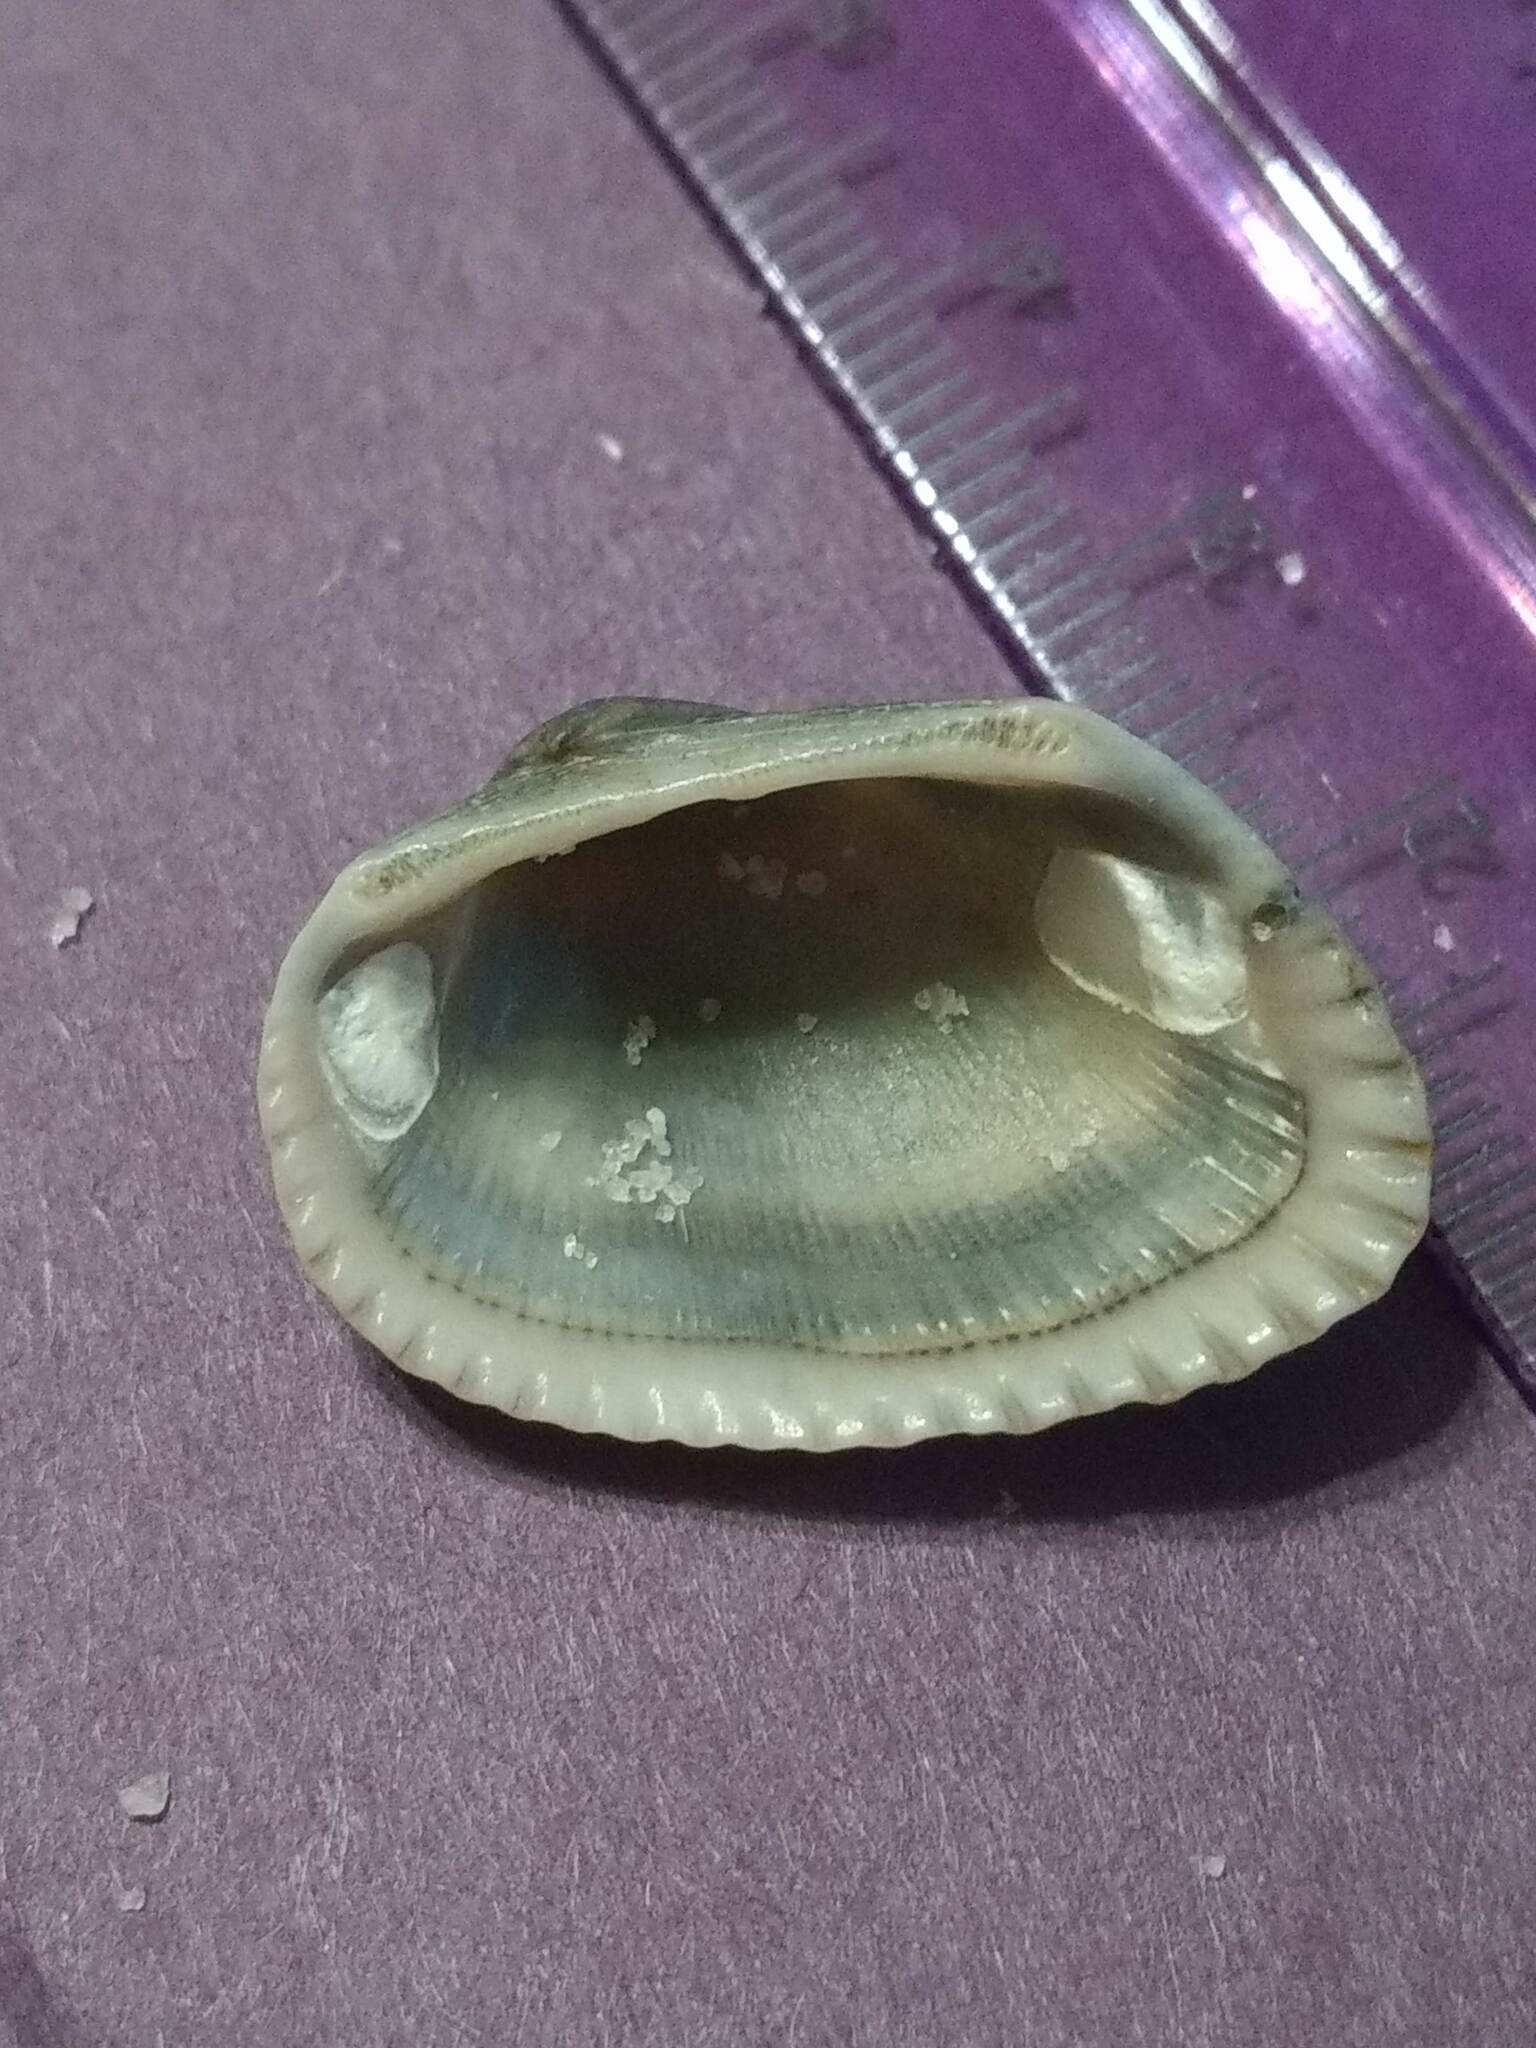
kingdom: Animalia
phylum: Mollusca
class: Bivalvia
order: Arcida
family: Arcidae
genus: Anadara
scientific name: Anadara transversa
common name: Transverse ark
